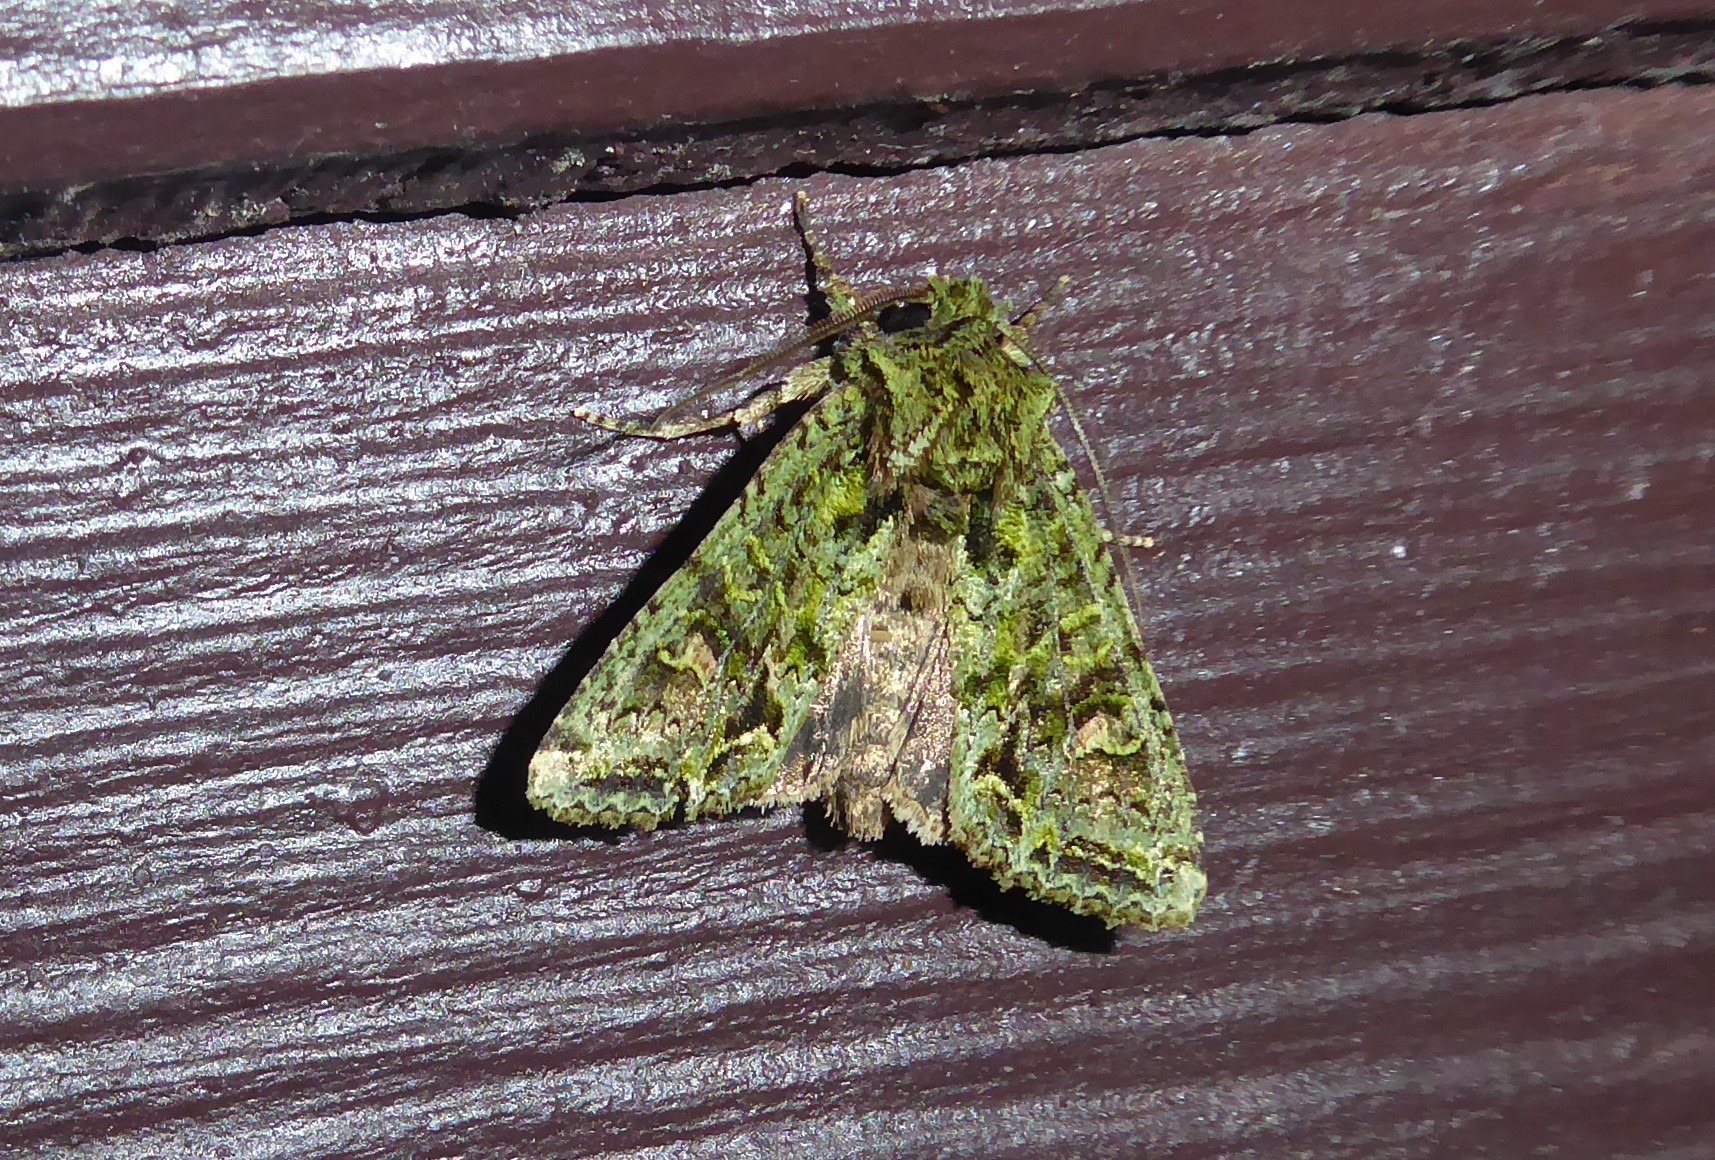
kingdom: Animalia
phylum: Arthropoda
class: Insecta
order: Lepidoptera
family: Noctuidae
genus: Ichneutica
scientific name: Ichneutica
